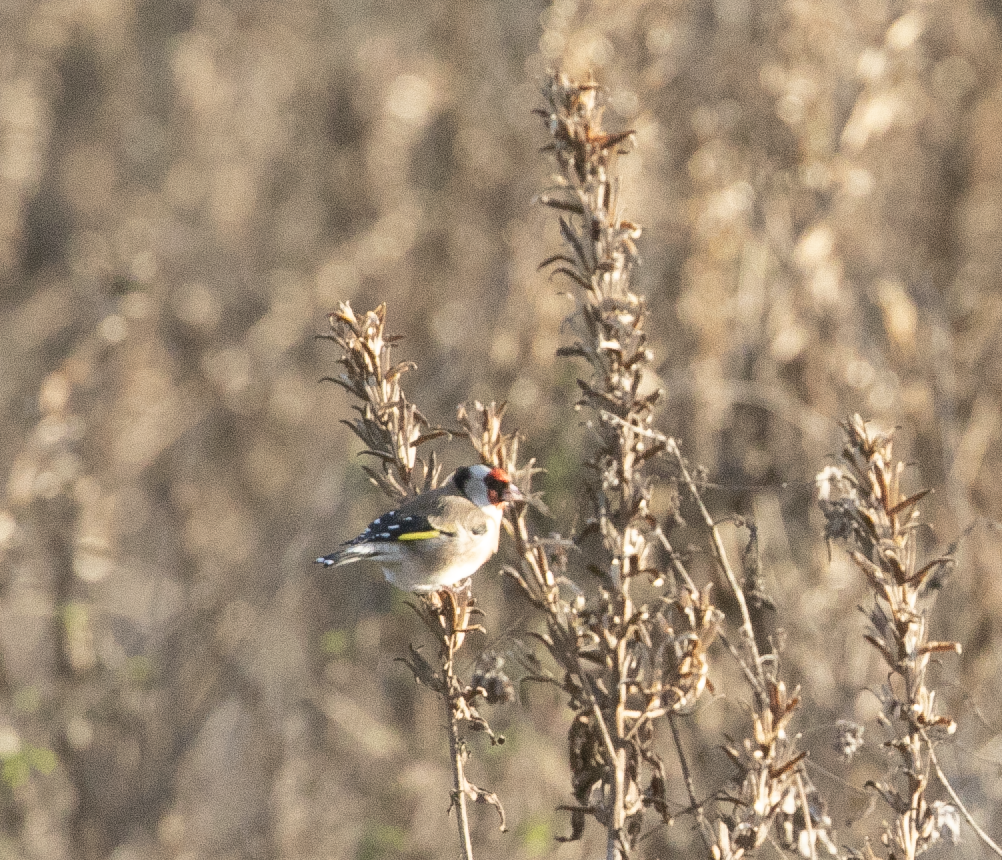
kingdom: Animalia
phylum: Chordata
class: Aves
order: Passeriformes
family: Fringillidae
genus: Carduelis
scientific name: Carduelis carduelis
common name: European goldfinch
